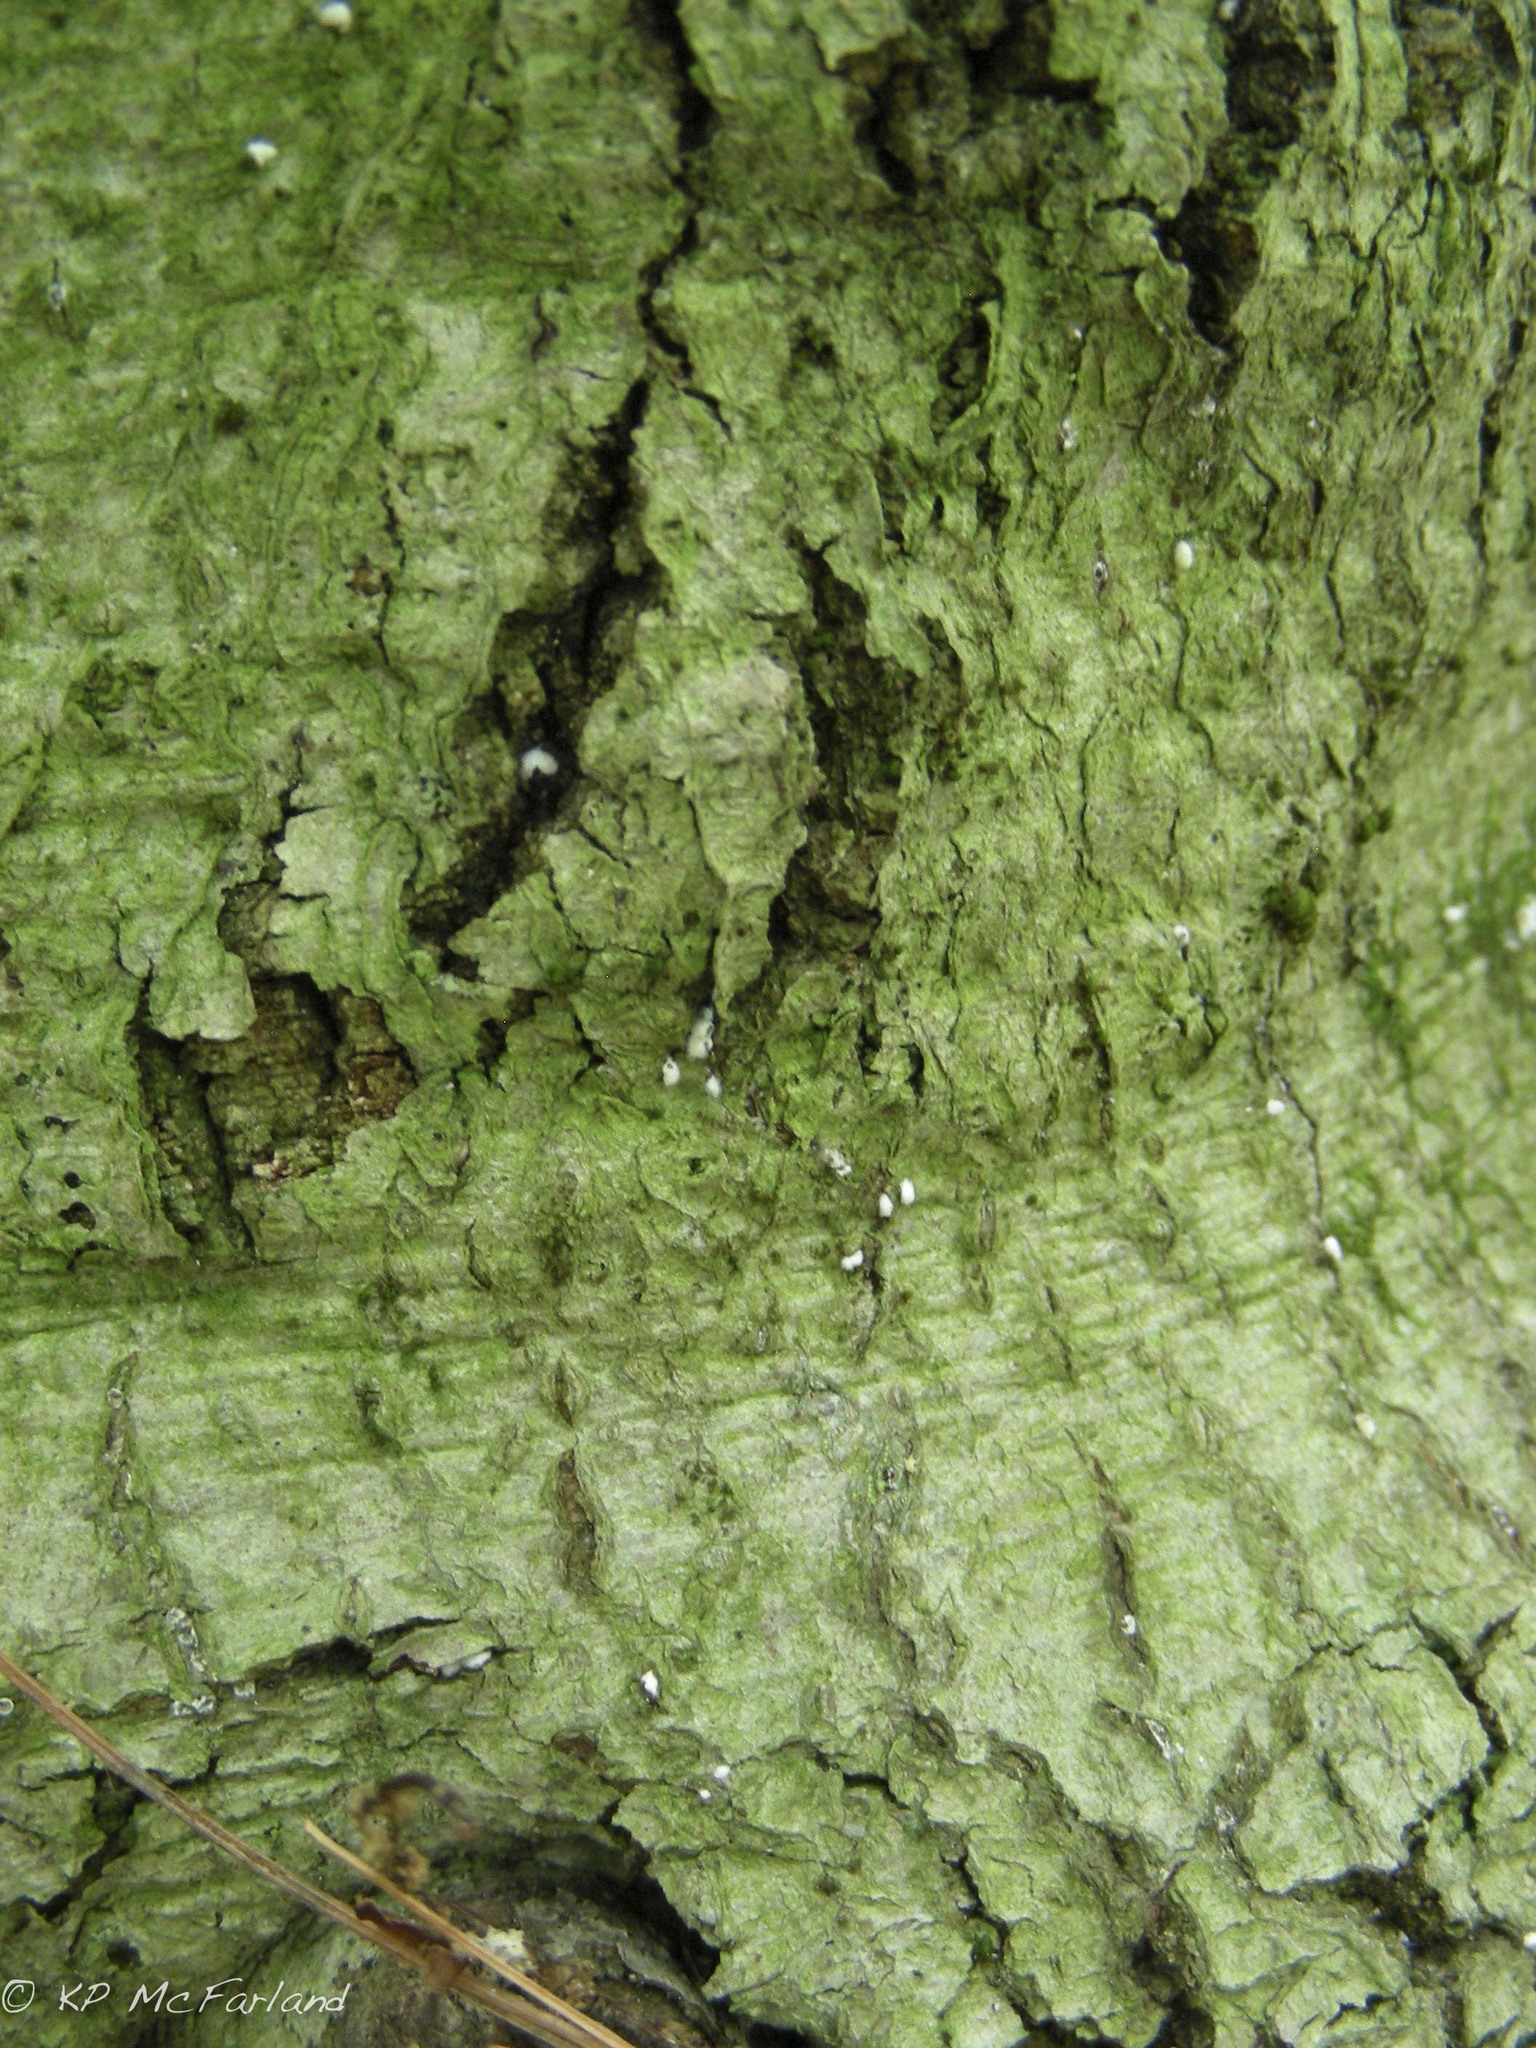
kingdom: Animalia
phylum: Arthropoda
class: Insecta
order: Hemiptera
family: Eriococcidae
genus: Cryptococcus
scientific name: Cryptococcus fagisuga
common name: Beech scale
